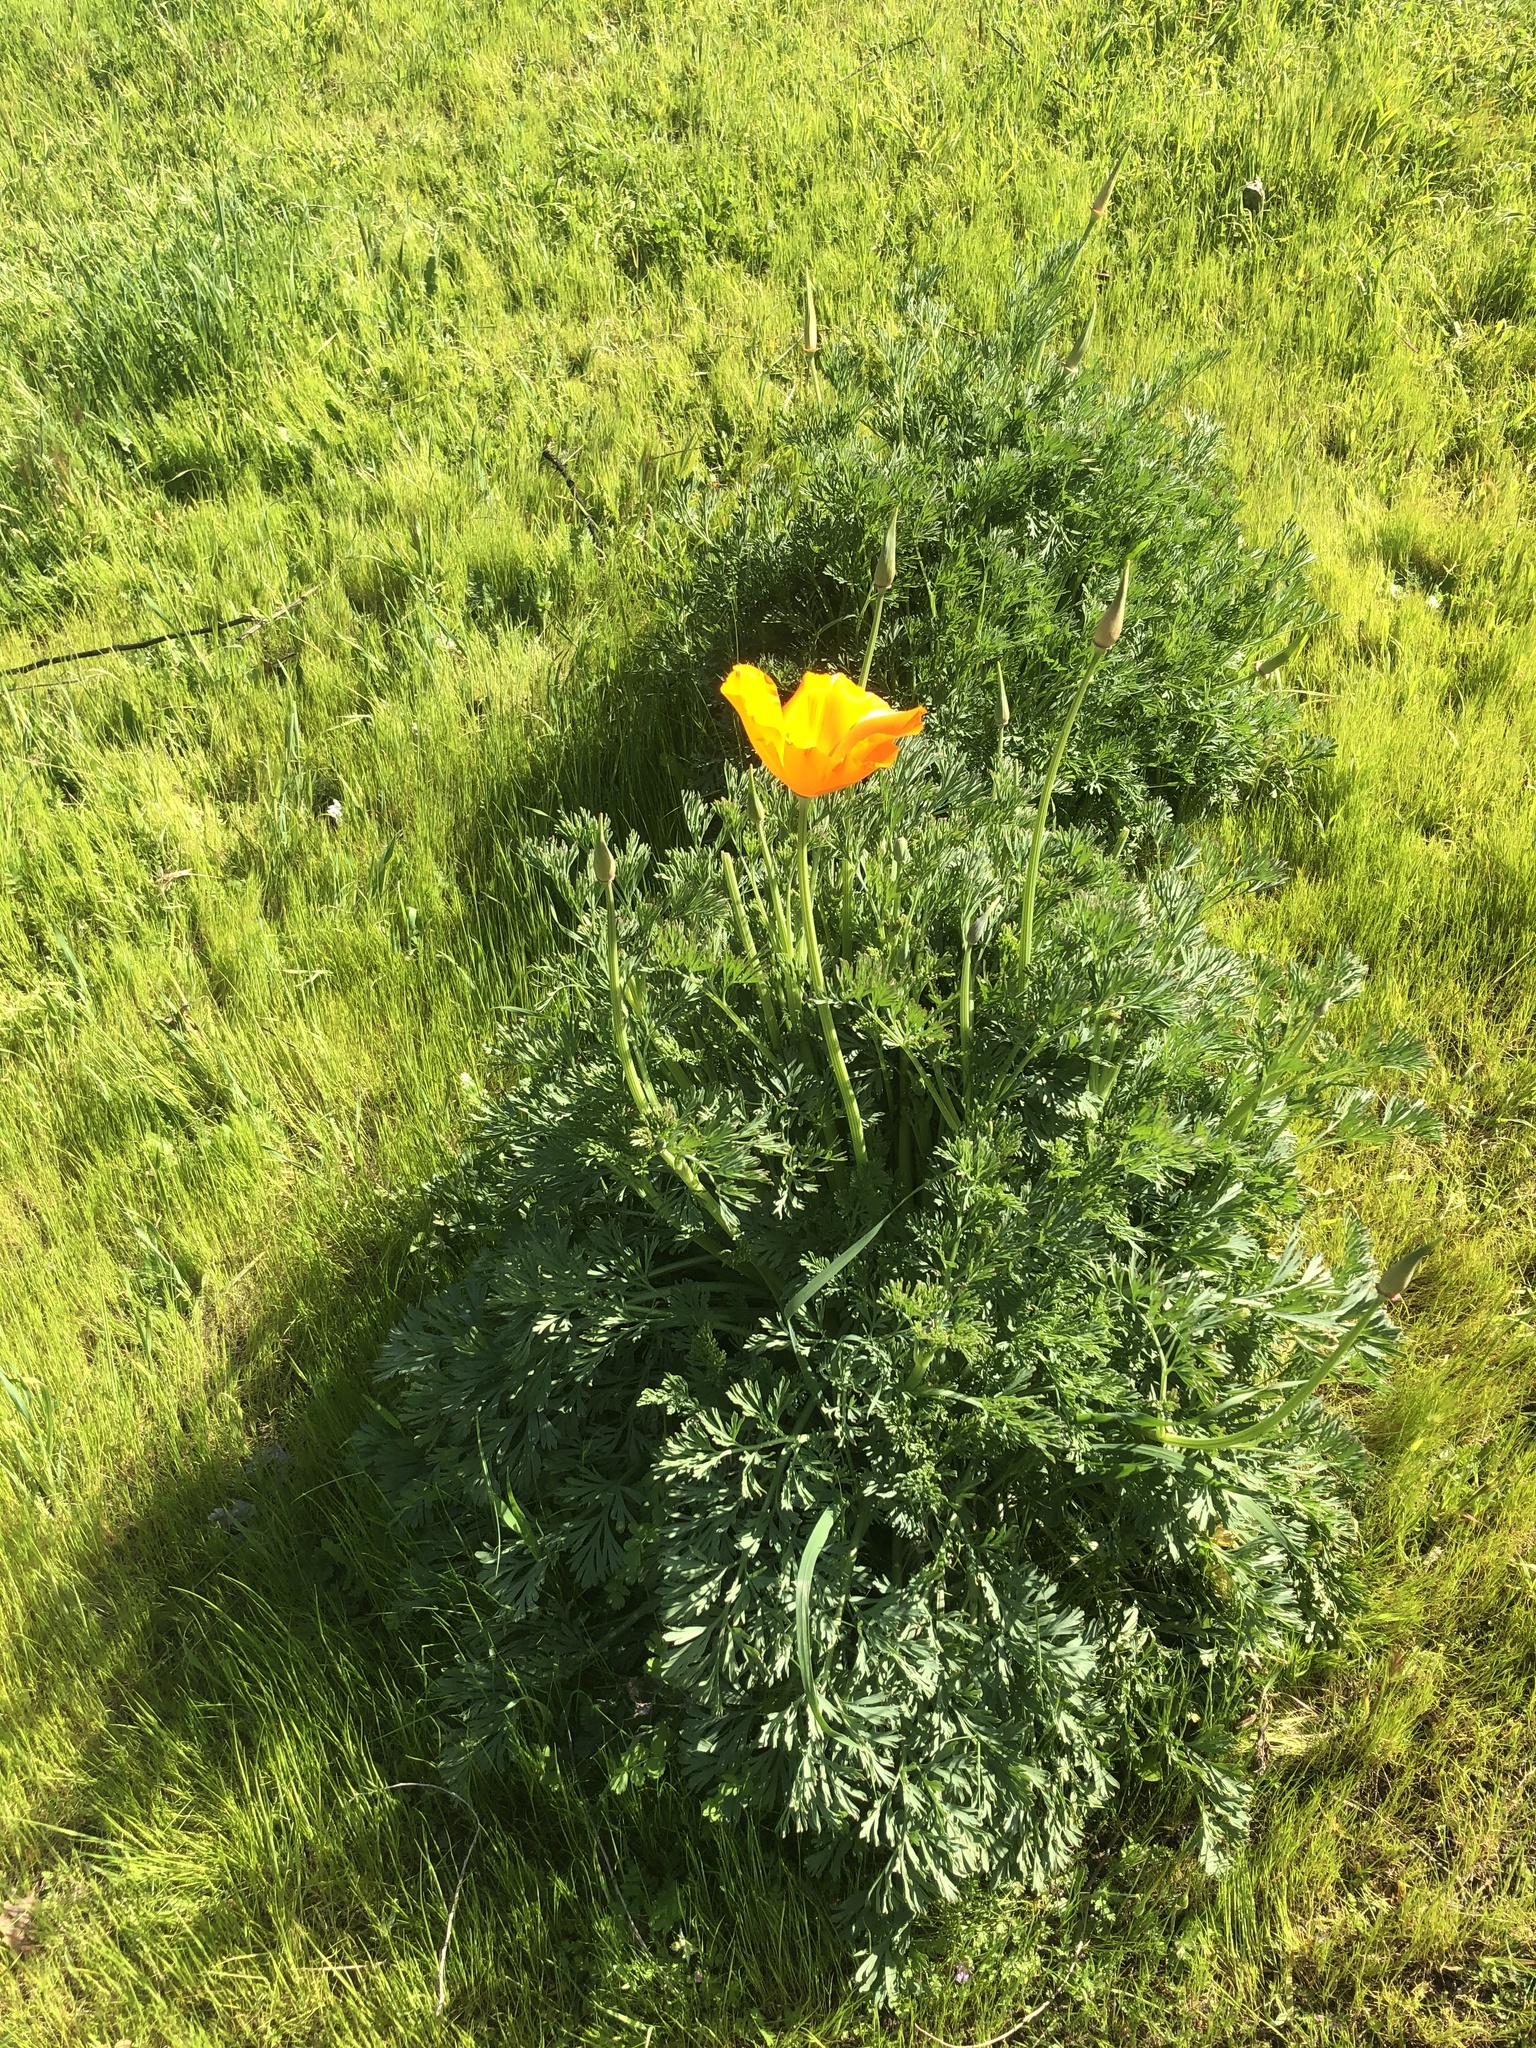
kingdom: Plantae
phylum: Tracheophyta
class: Magnoliopsida
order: Ranunculales
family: Papaveraceae
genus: Eschscholzia
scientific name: Eschscholzia californica
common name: California poppy
